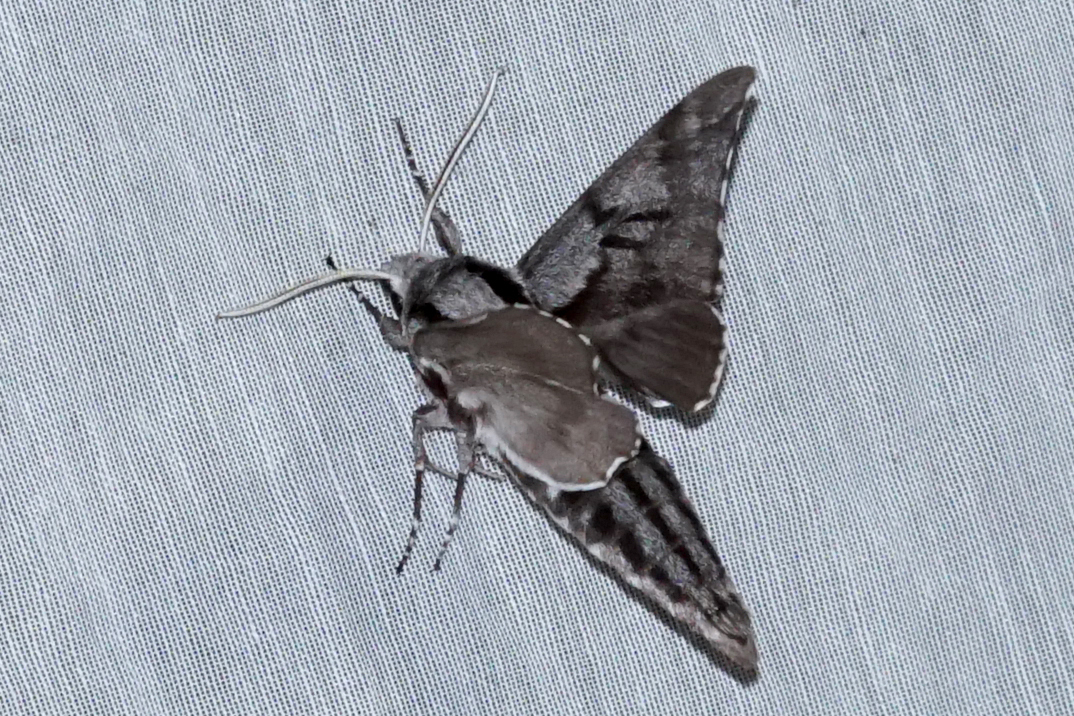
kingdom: Animalia
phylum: Arthropoda
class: Insecta
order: Lepidoptera
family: Sphingidae
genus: Sphinx
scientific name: Sphinx pinastri
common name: Pine hawk-moth
